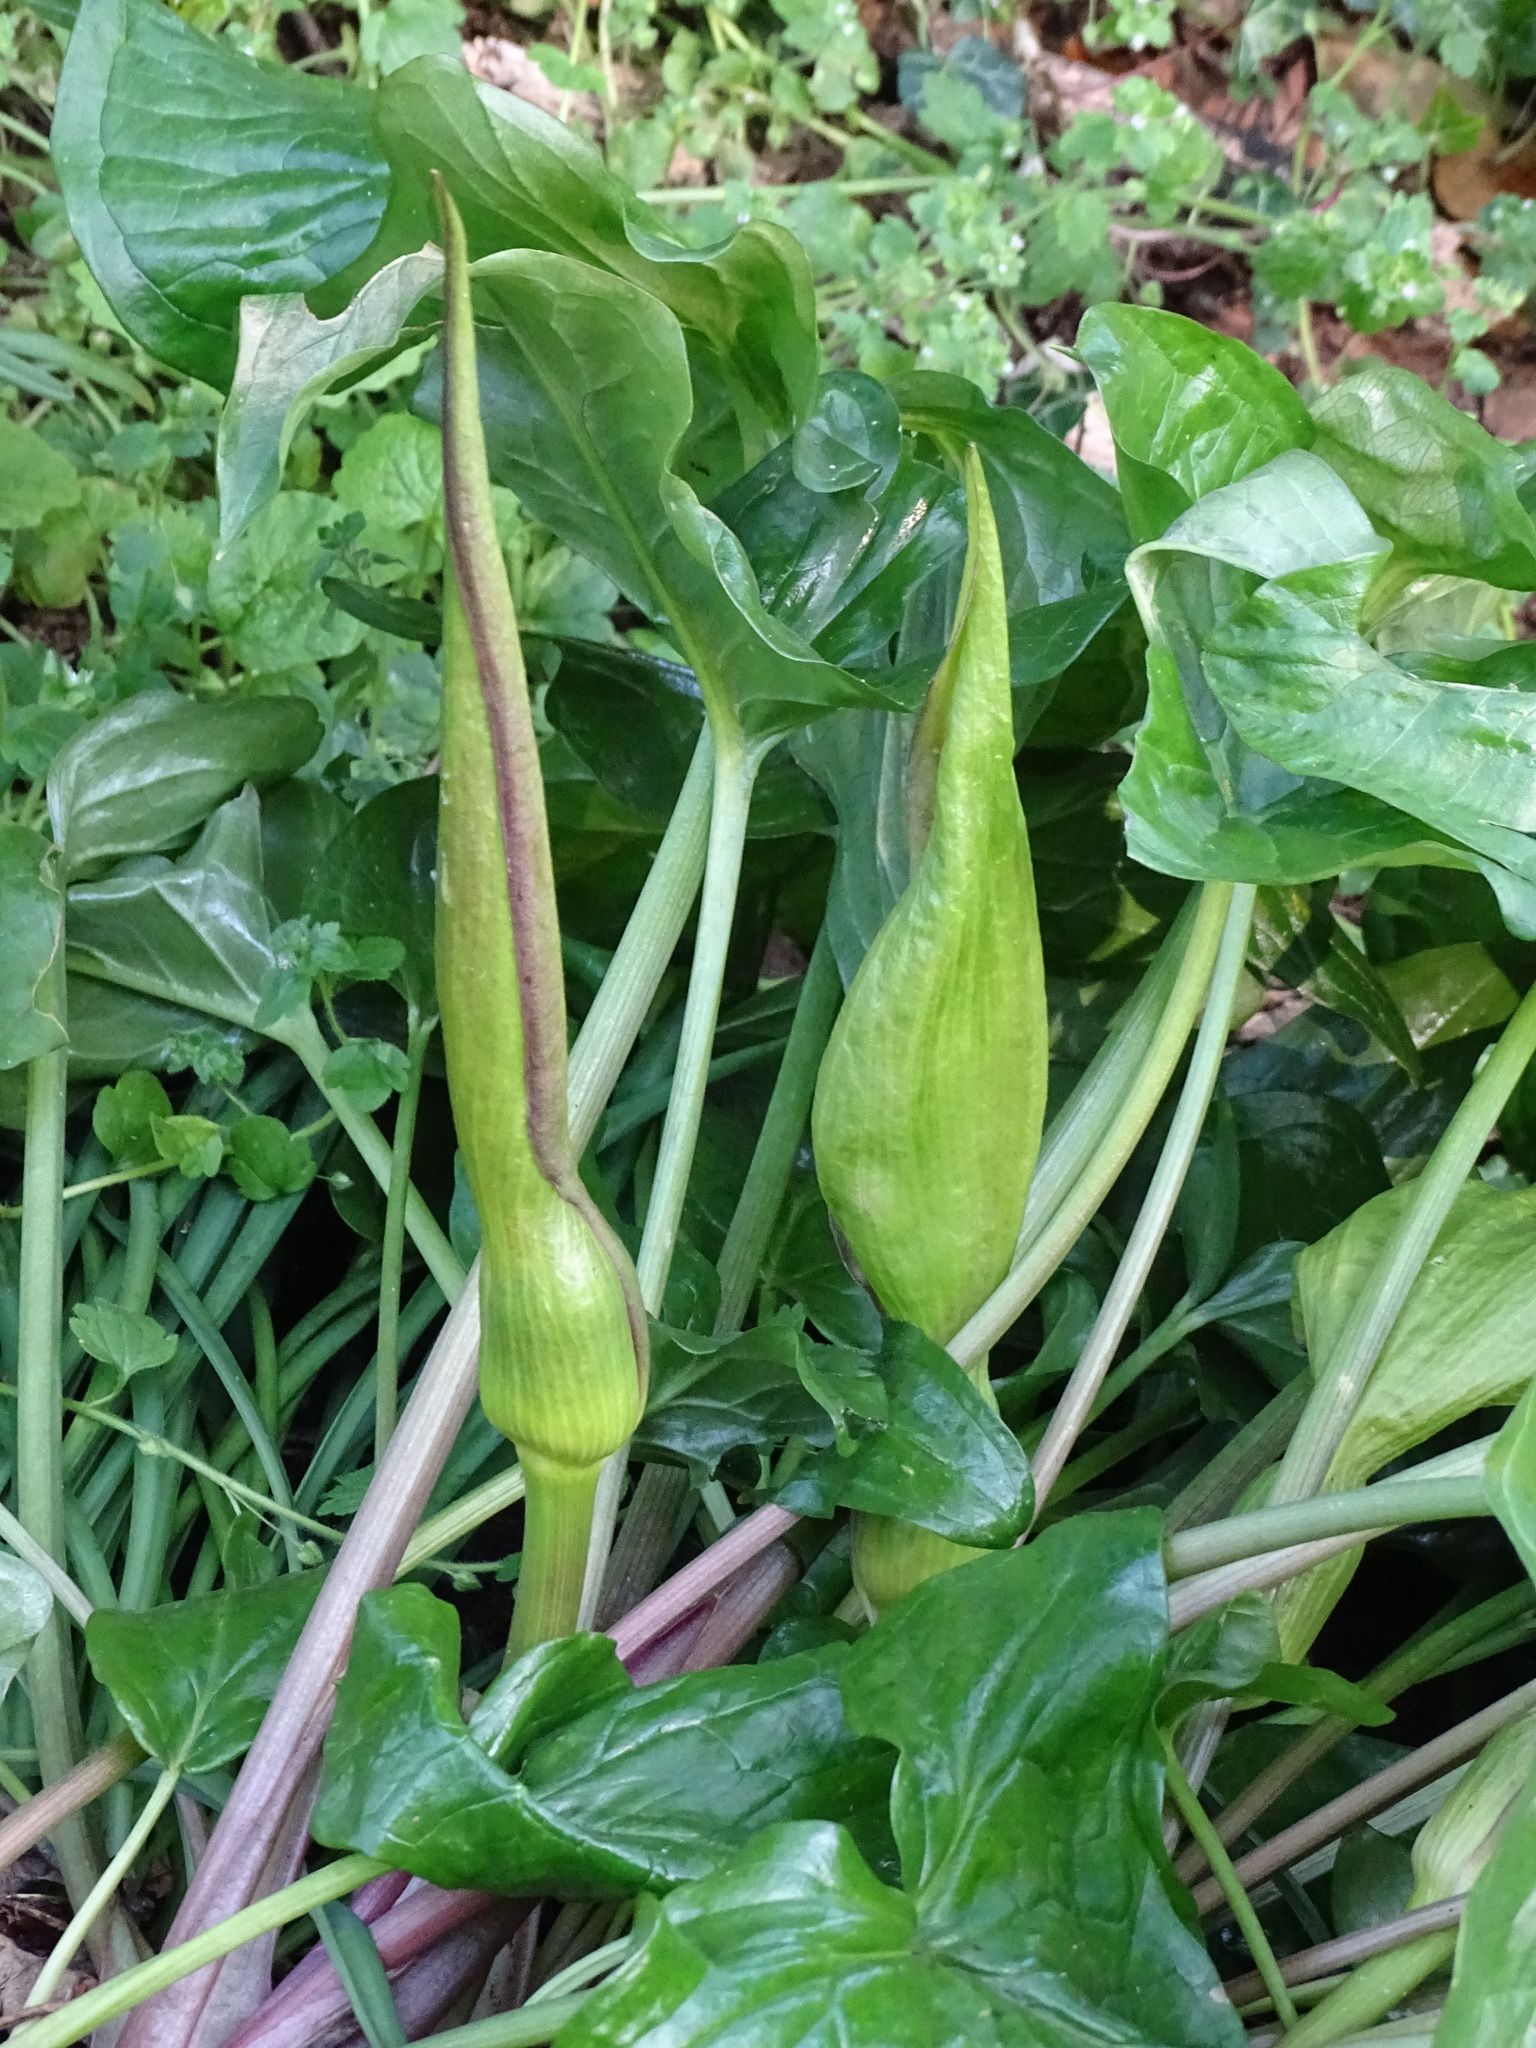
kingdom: Plantae
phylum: Tracheophyta
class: Liliopsida
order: Alismatales
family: Araceae
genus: Arum
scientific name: Arum maculatum
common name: Lords-and-ladies
